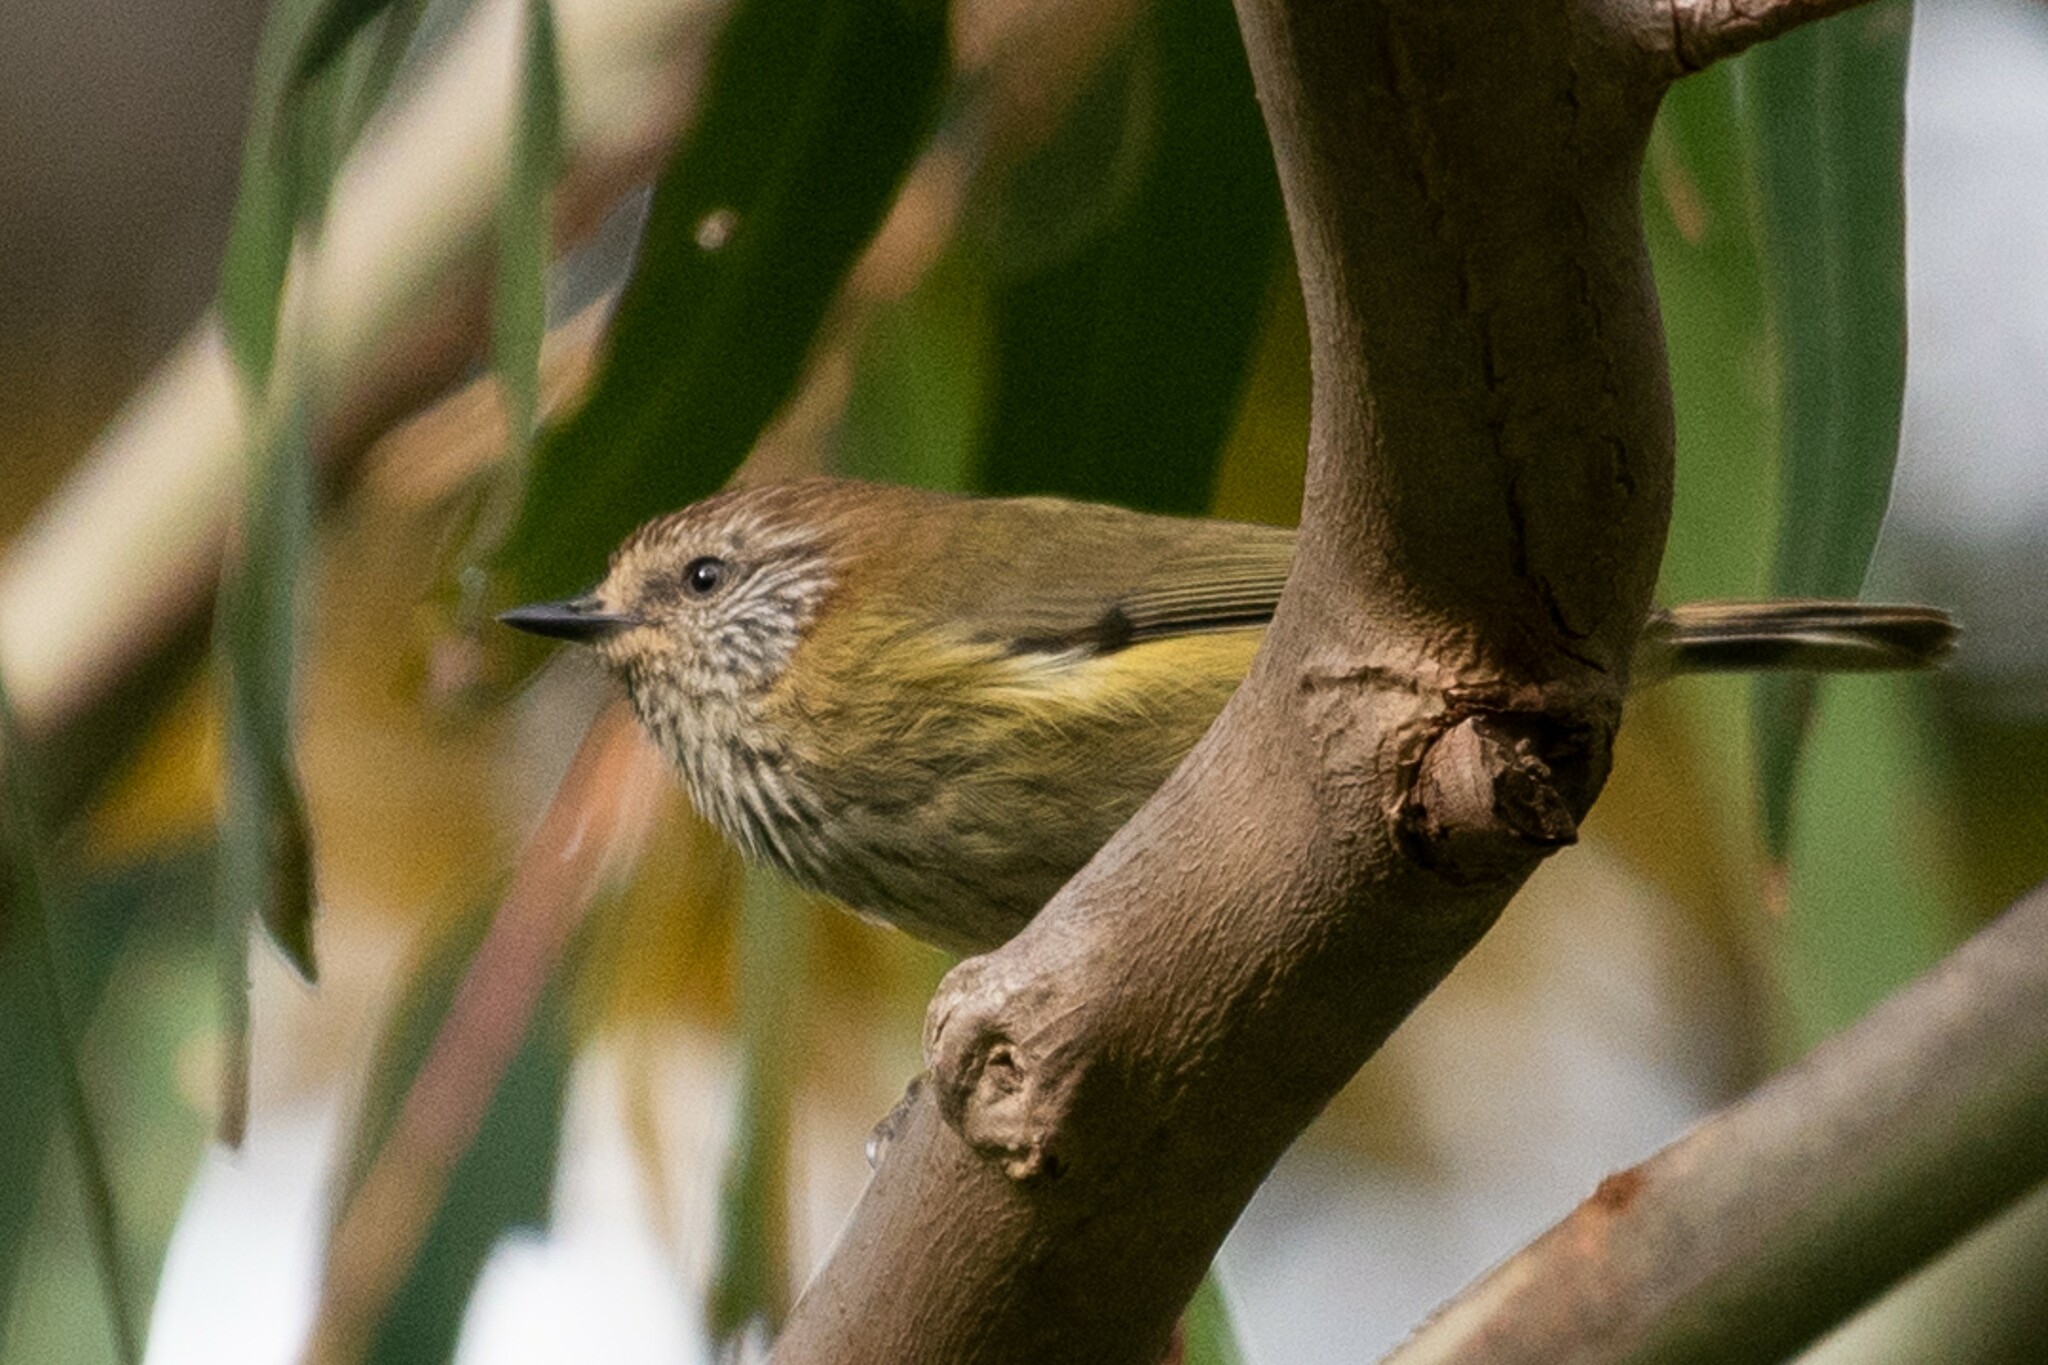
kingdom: Animalia
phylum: Chordata
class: Aves
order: Passeriformes
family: Acanthizidae
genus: Acanthiza
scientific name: Acanthiza lineata
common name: Striated thornbill
